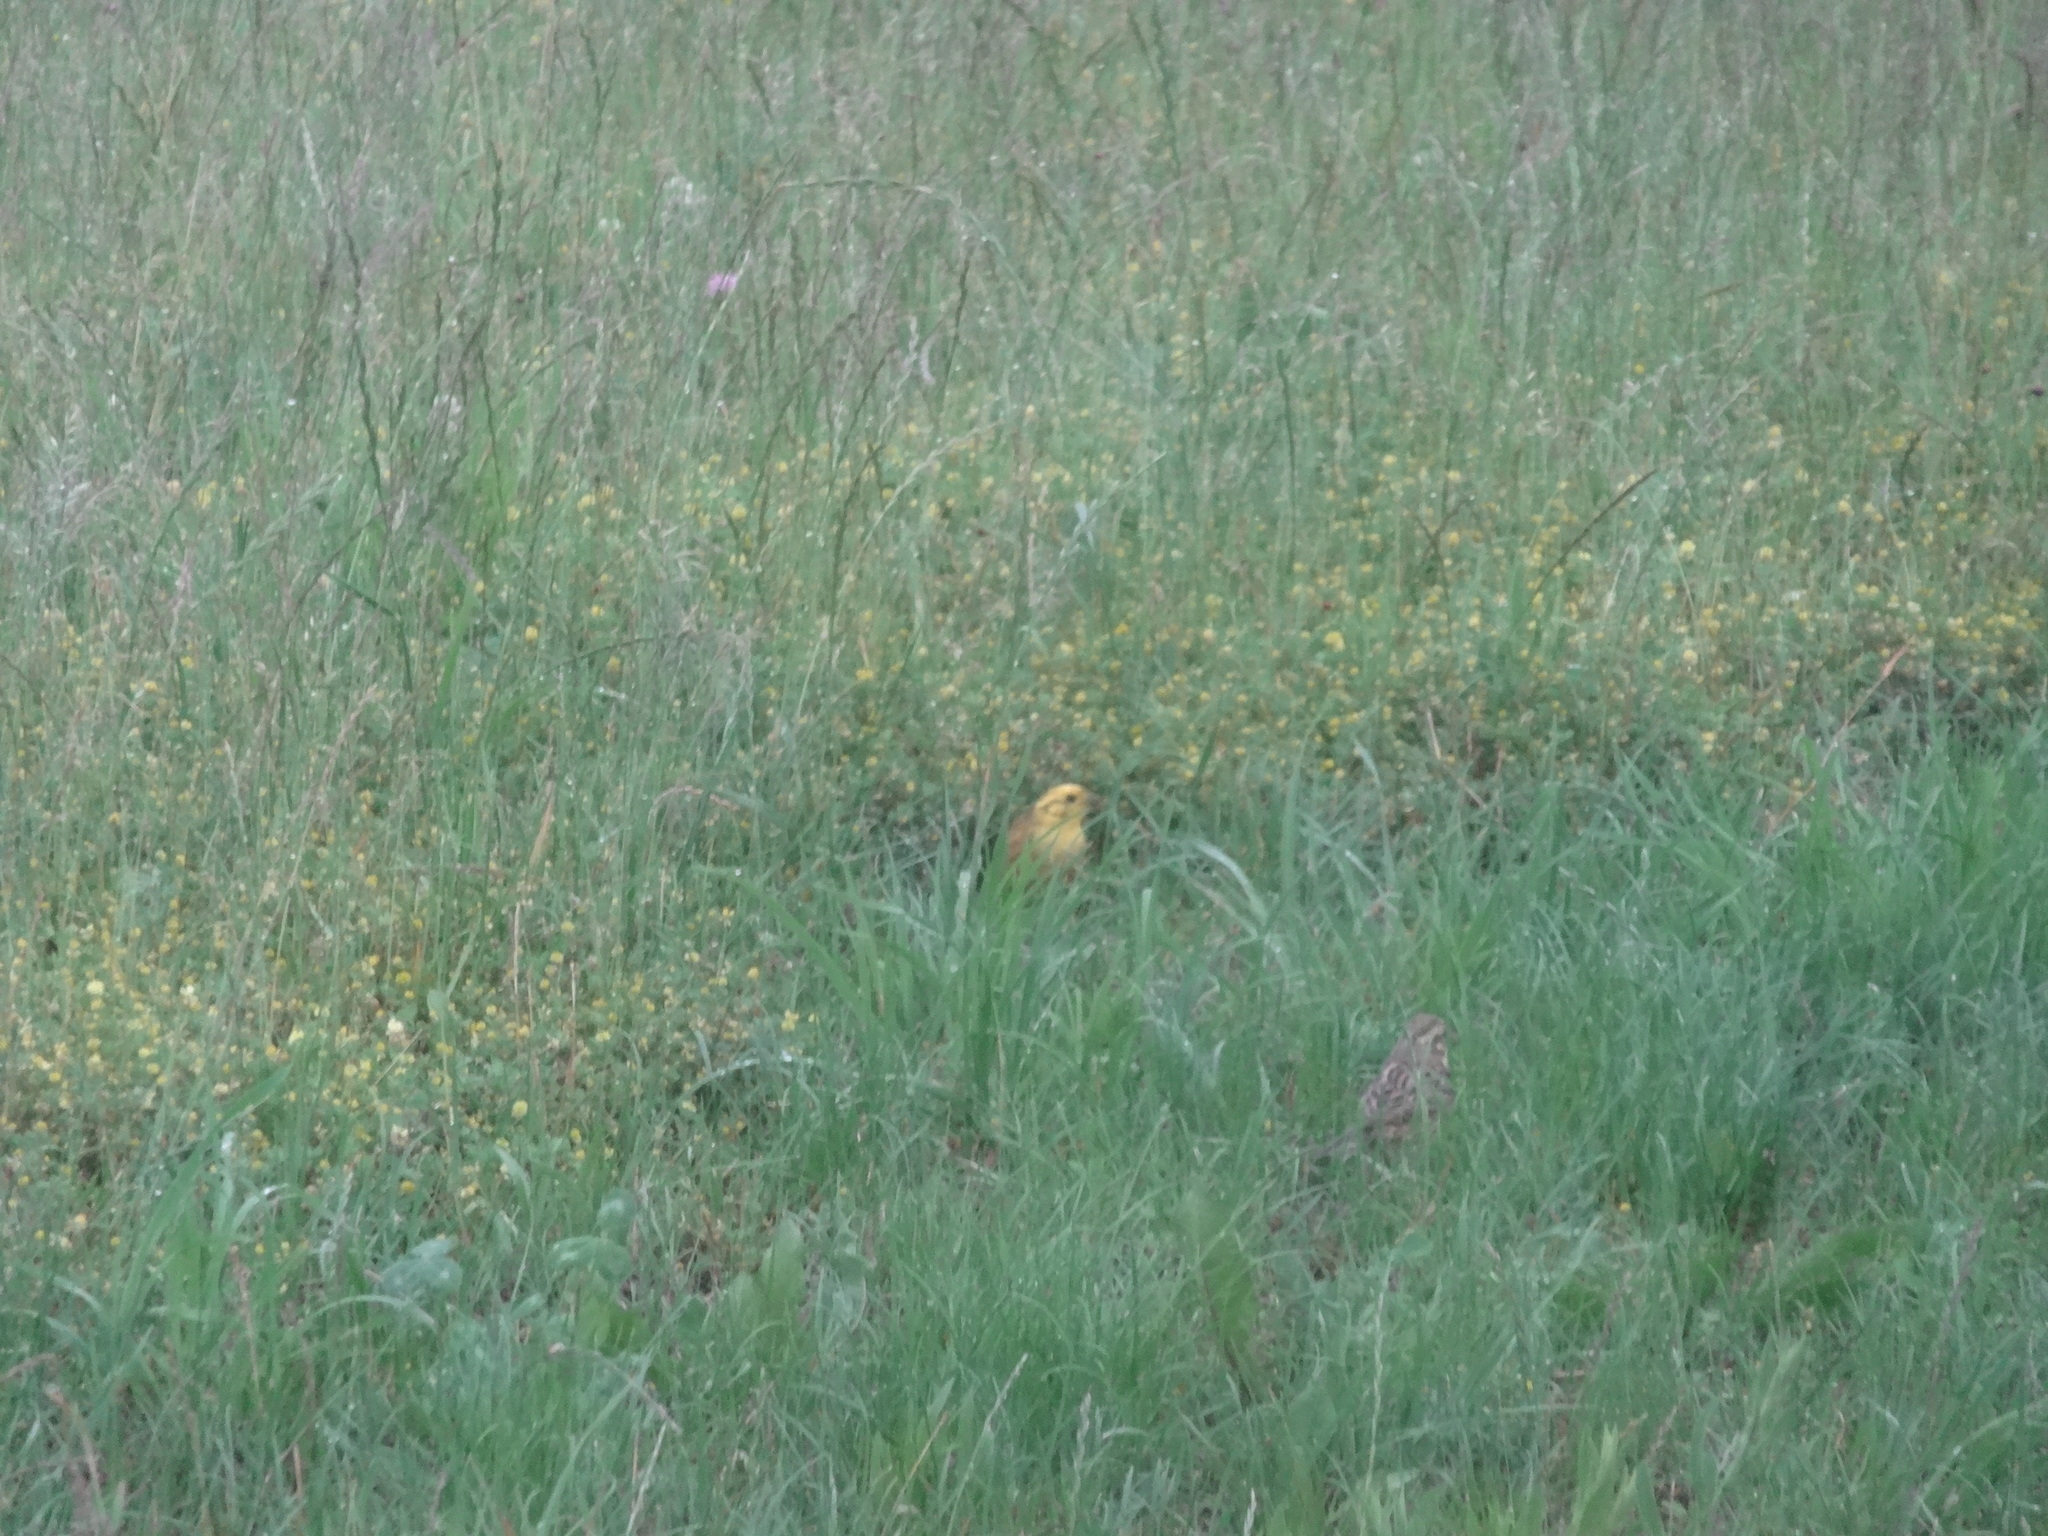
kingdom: Animalia
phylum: Chordata
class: Aves
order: Passeriformes
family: Emberizidae
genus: Emberiza
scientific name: Emberiza citrinella
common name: Yellowhammer
